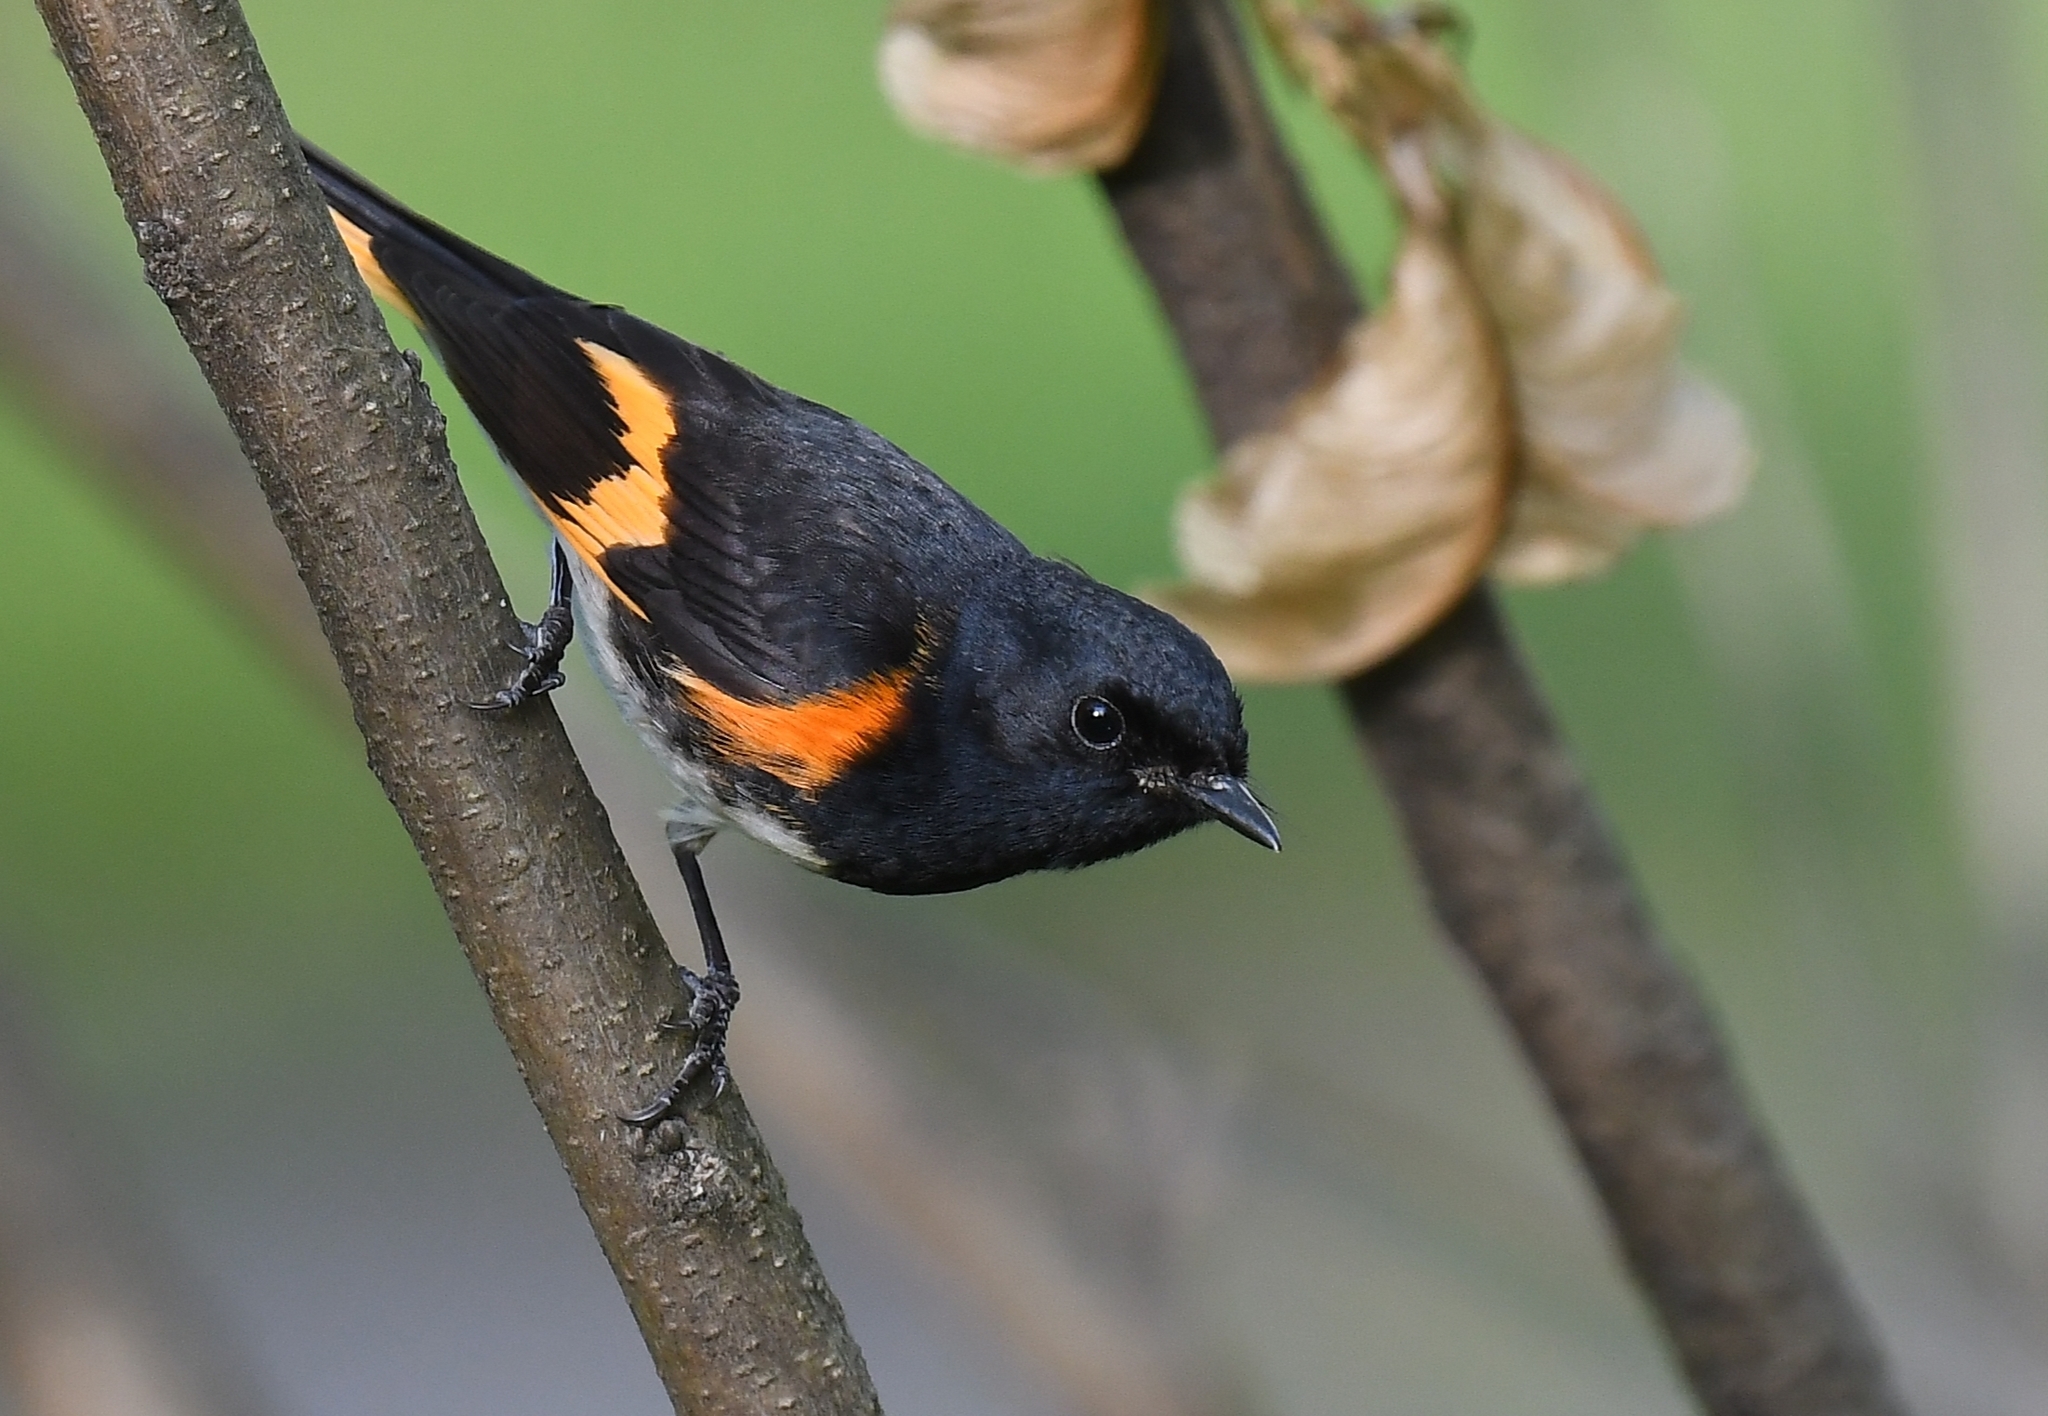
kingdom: Animalia
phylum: Chordata
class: Aves
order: Passeriformes
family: Parulidae
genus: Setophaga
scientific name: Setophaga ruticilla
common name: American redstart
